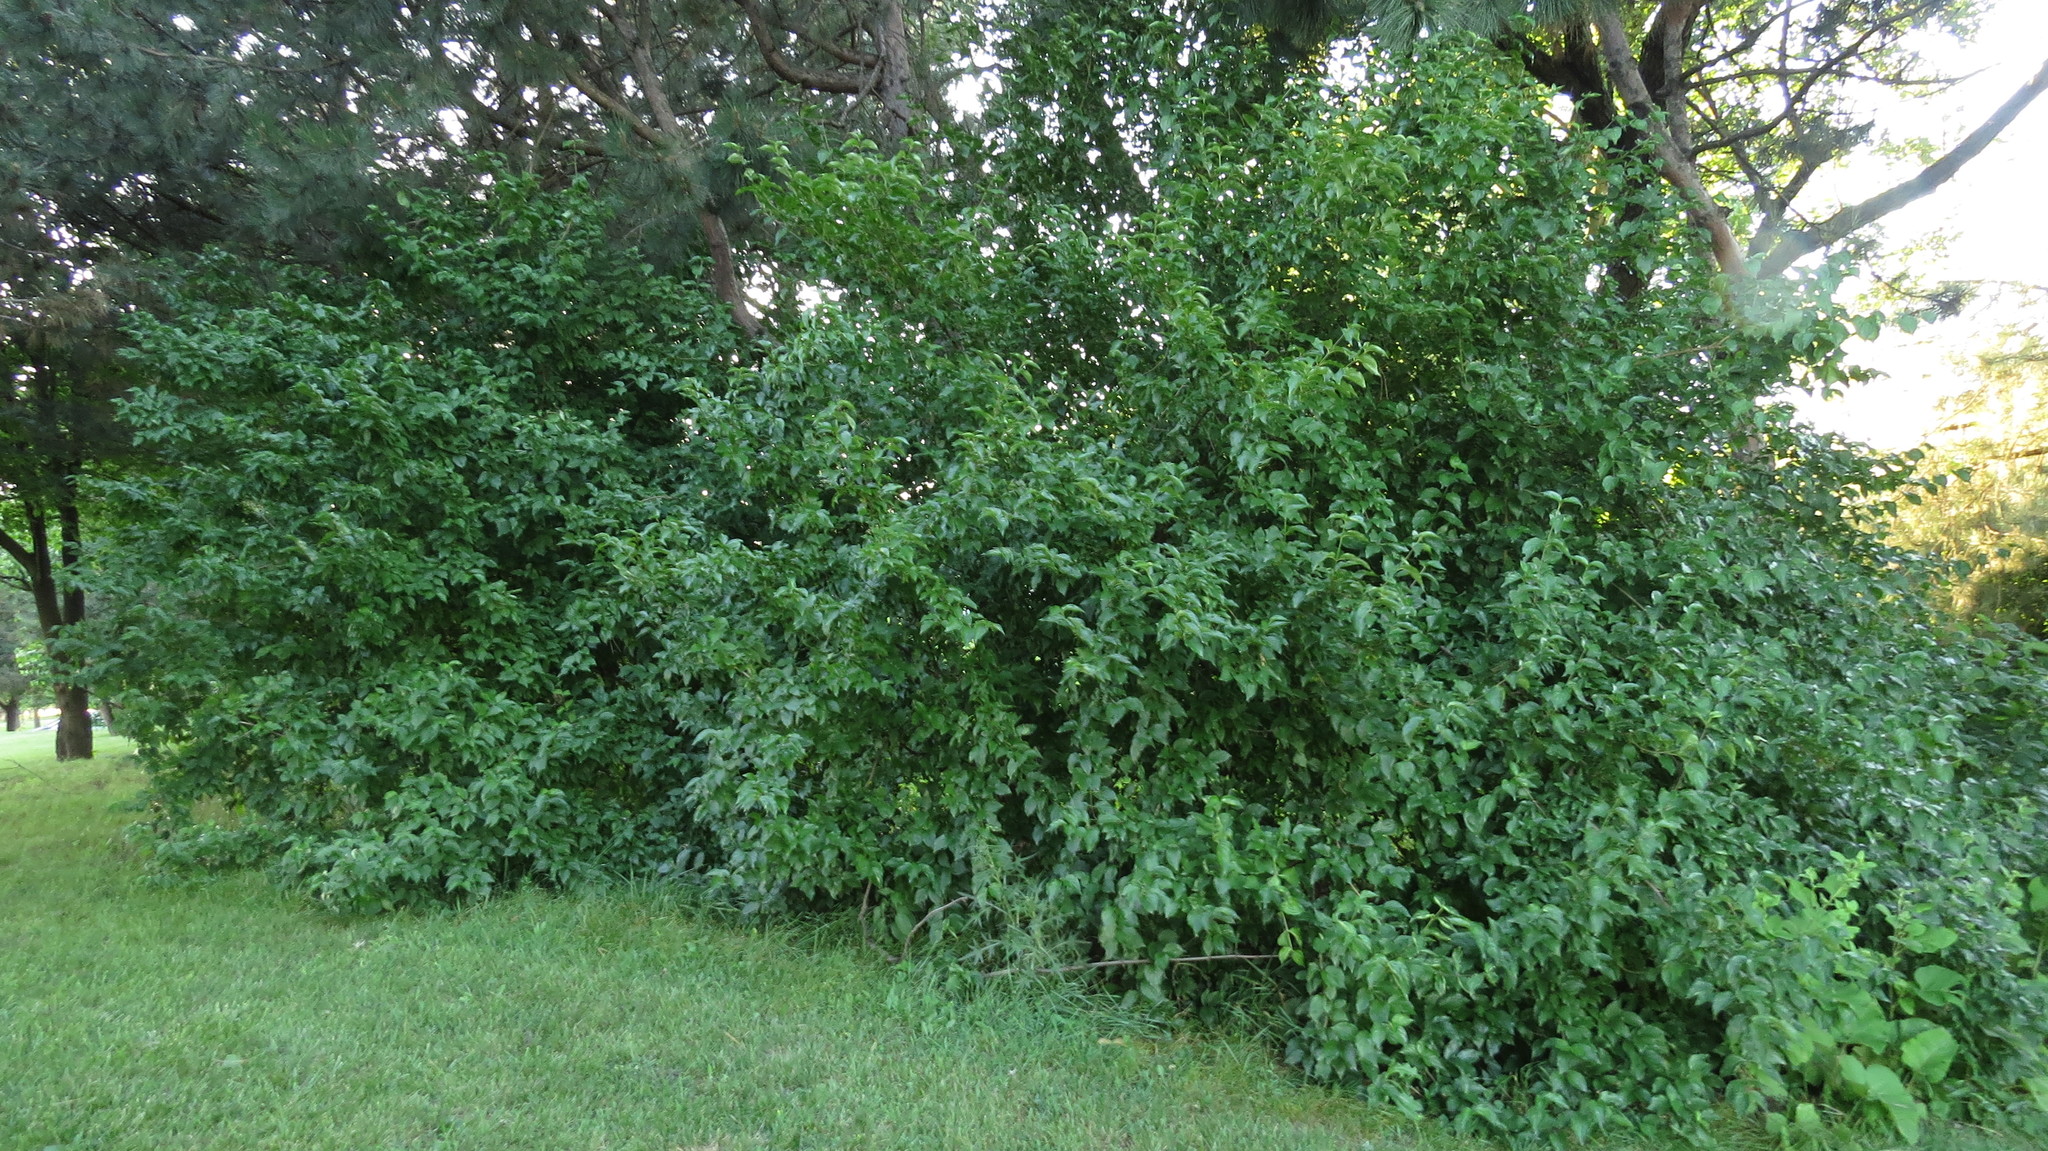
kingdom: Plantae
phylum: Tracheophyta
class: Magnoliopsida
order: Cornales
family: Cornaceae
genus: Cornus
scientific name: Cornus mas
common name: Cornelian-cherry
